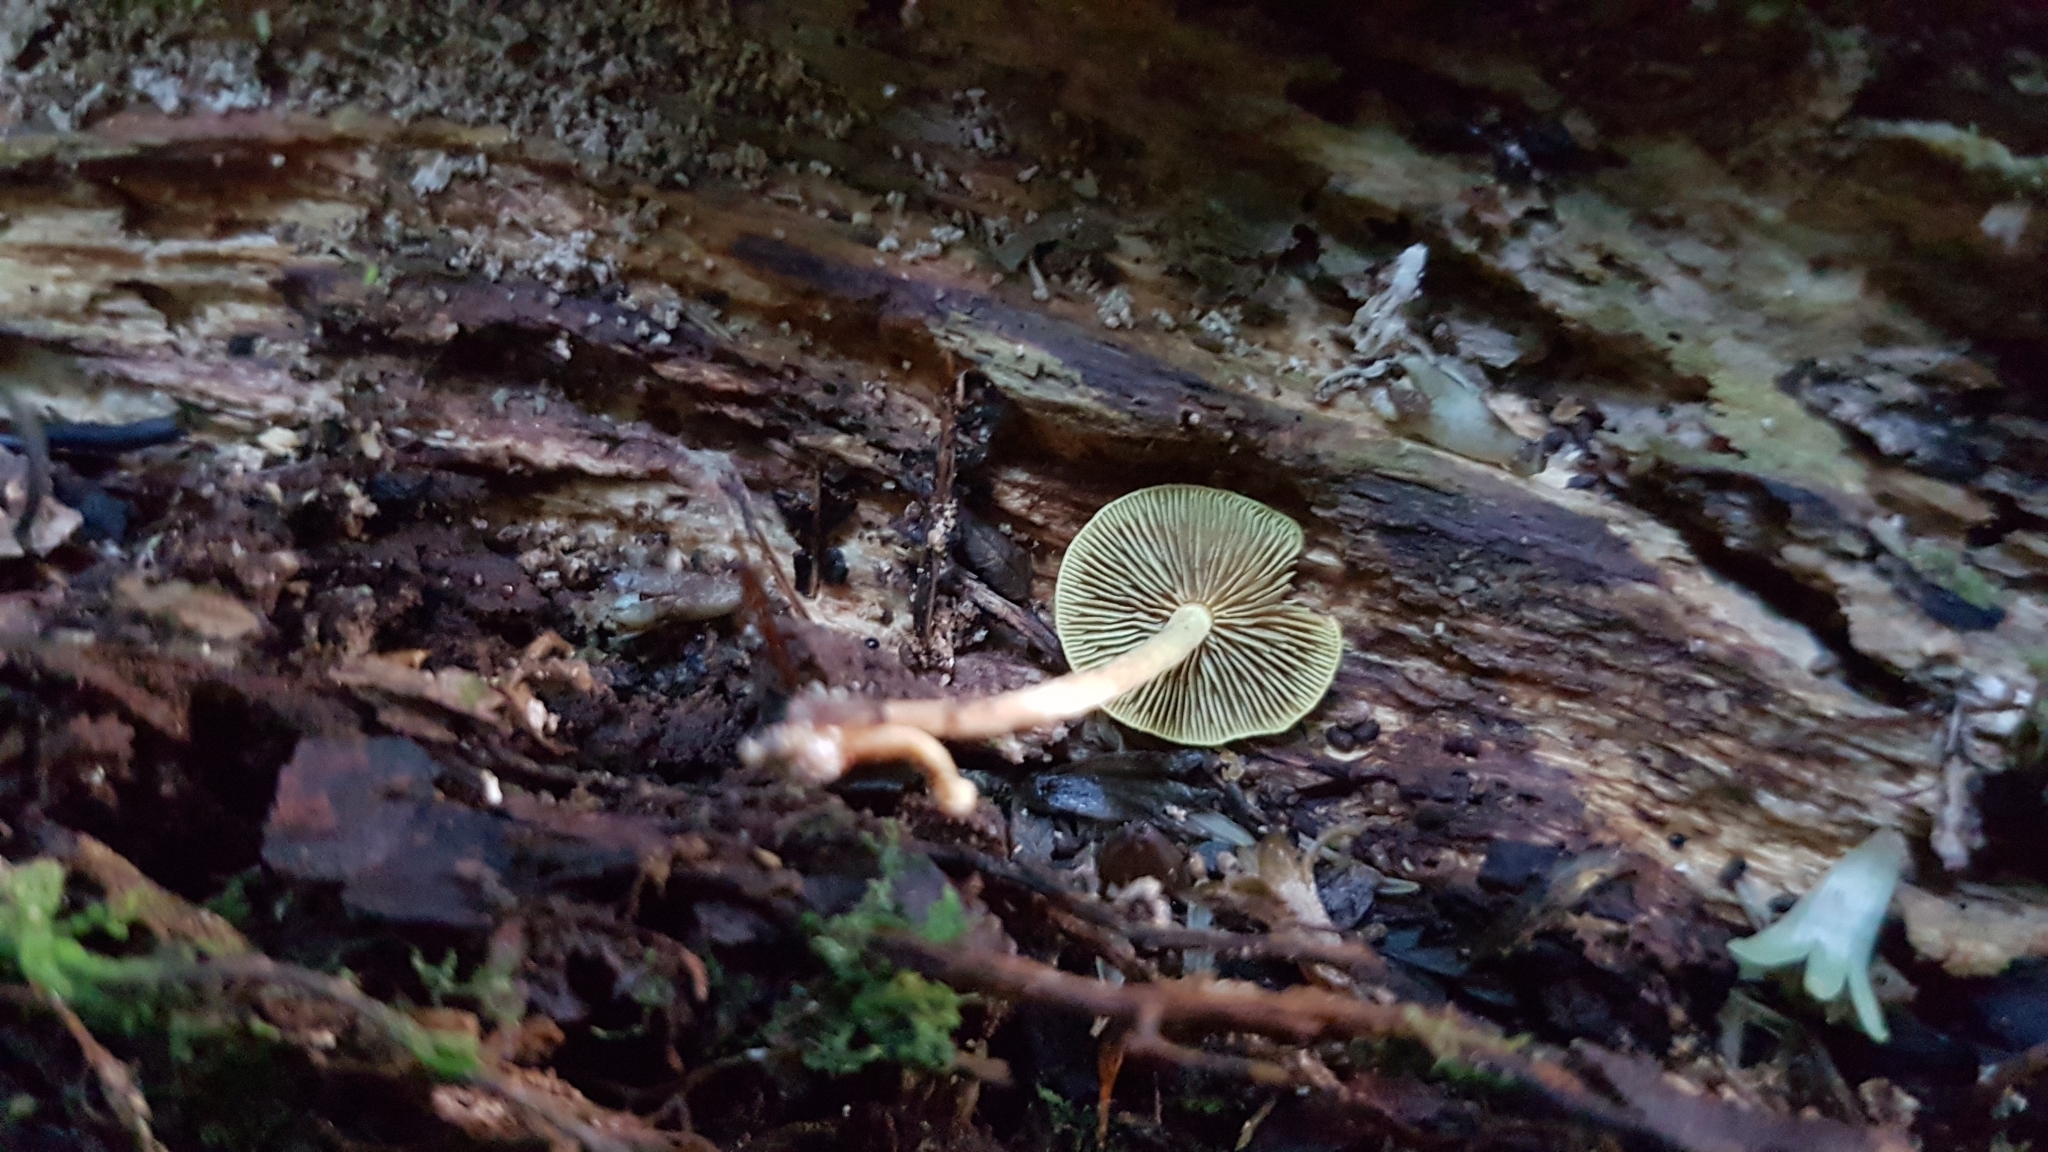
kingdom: Fungi
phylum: Basidiomycota
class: Agaricomycetes
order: Agaricales
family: Strophariaceae
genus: Hypholoma
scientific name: Hypholoma acutum
